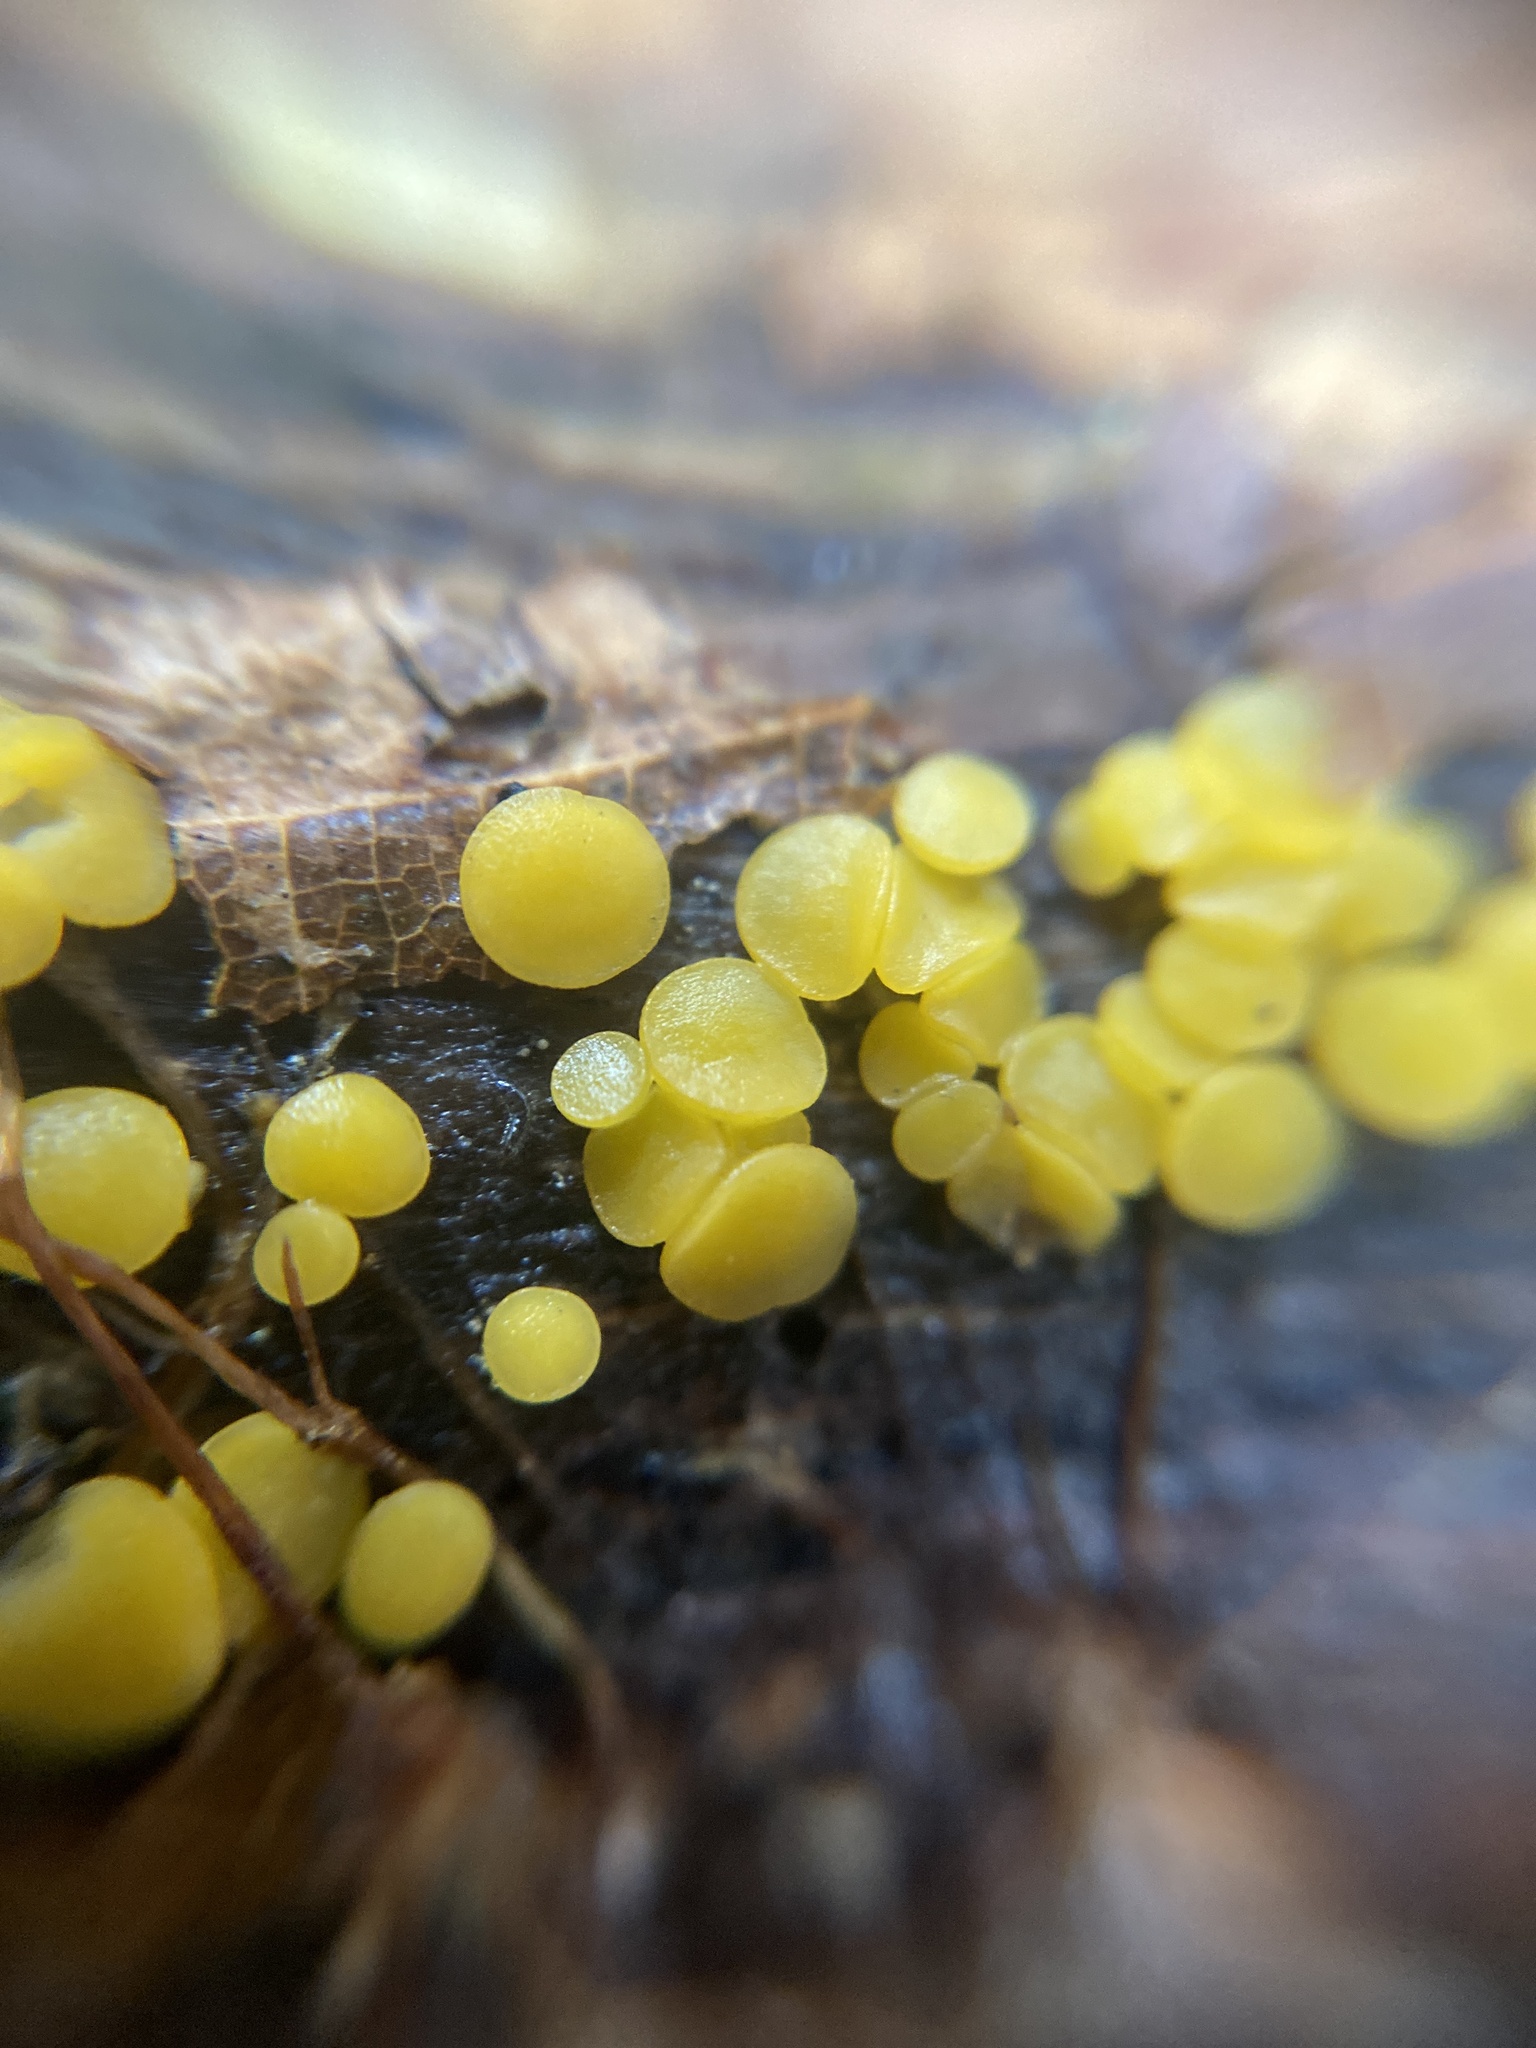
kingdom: Fungi
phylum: Ascomycota
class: Leotiomycetes
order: Helotiales
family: Pezizellaceae
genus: Calycina
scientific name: Calycina citrina
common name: Yellow fairy cups
